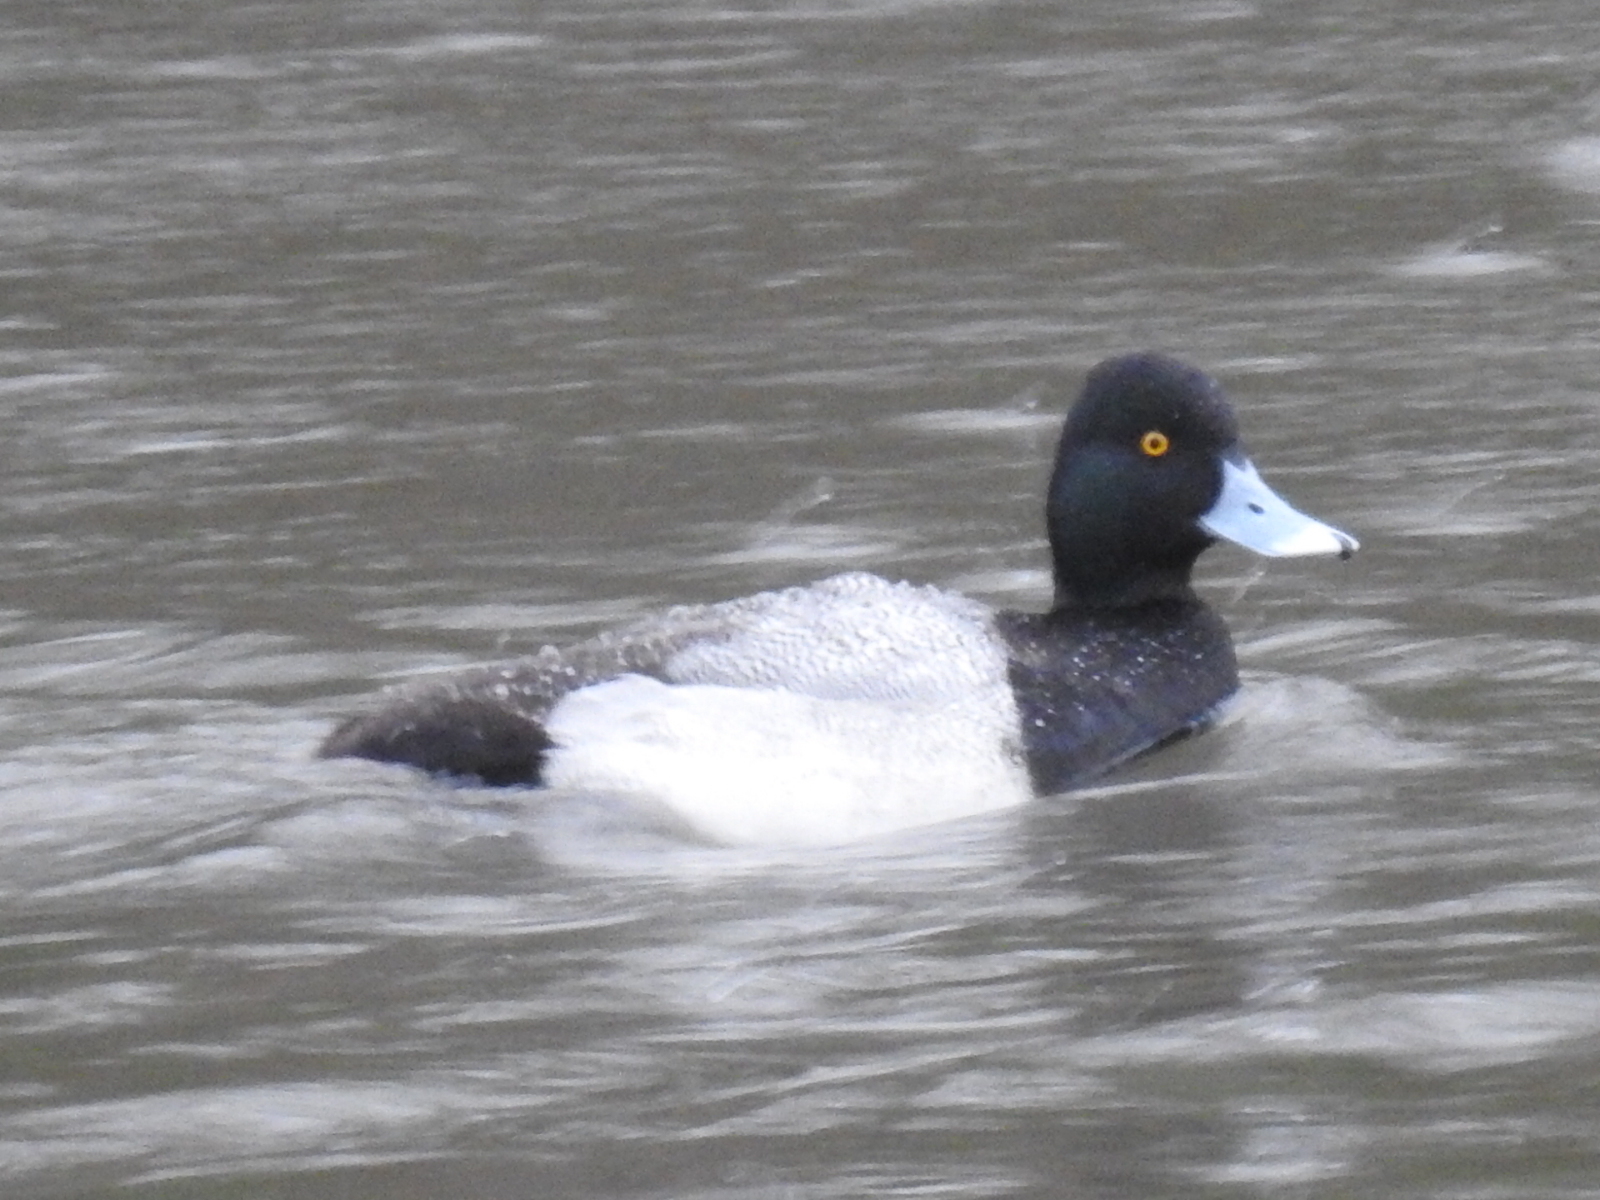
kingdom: Animalia
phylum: Chordata
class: Aves
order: Anseriformes
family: Anatidae
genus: Aythya
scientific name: Aythya affinis
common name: Lesser scaup
